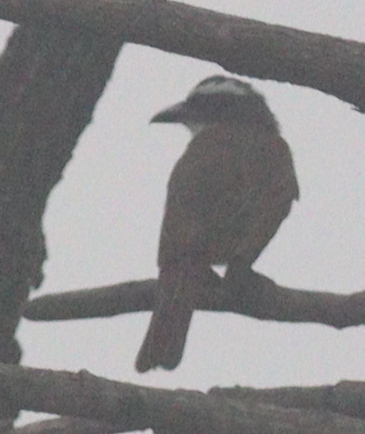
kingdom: Animalia
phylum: Chordata
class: Aves
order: Passeriformes
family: Tyrannidae
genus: Megarynchus
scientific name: Megarynchus pitangua
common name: Boat-billed flycatcher
